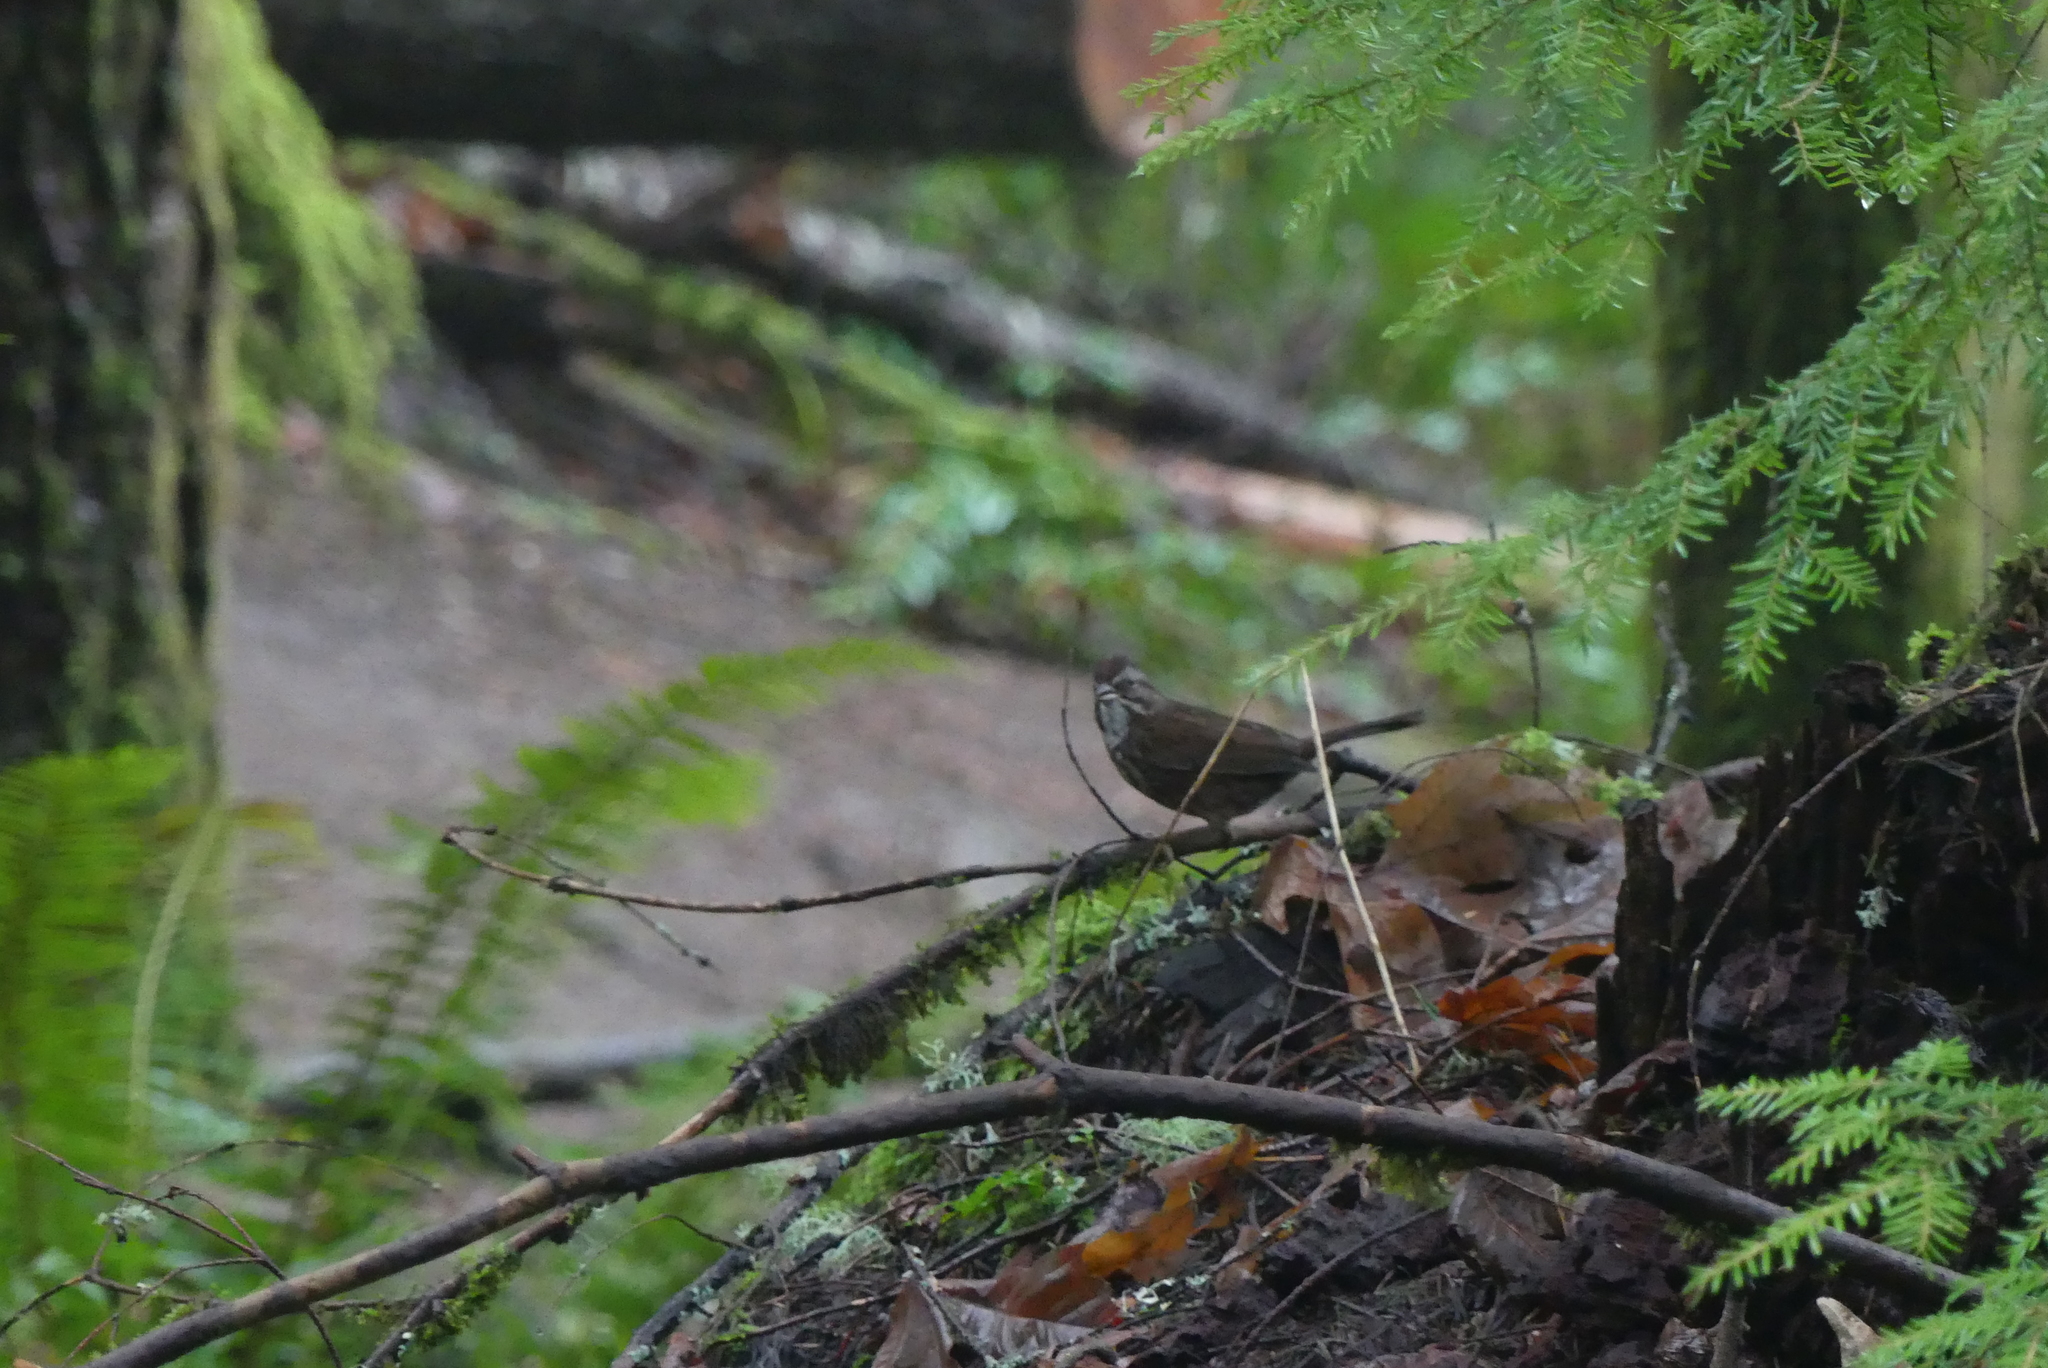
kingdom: Animalia
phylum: Chordata
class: Aves
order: Passeriformes
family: Passerellidae
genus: Melospiza
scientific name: Melospiza melodia
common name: Song sparrow
